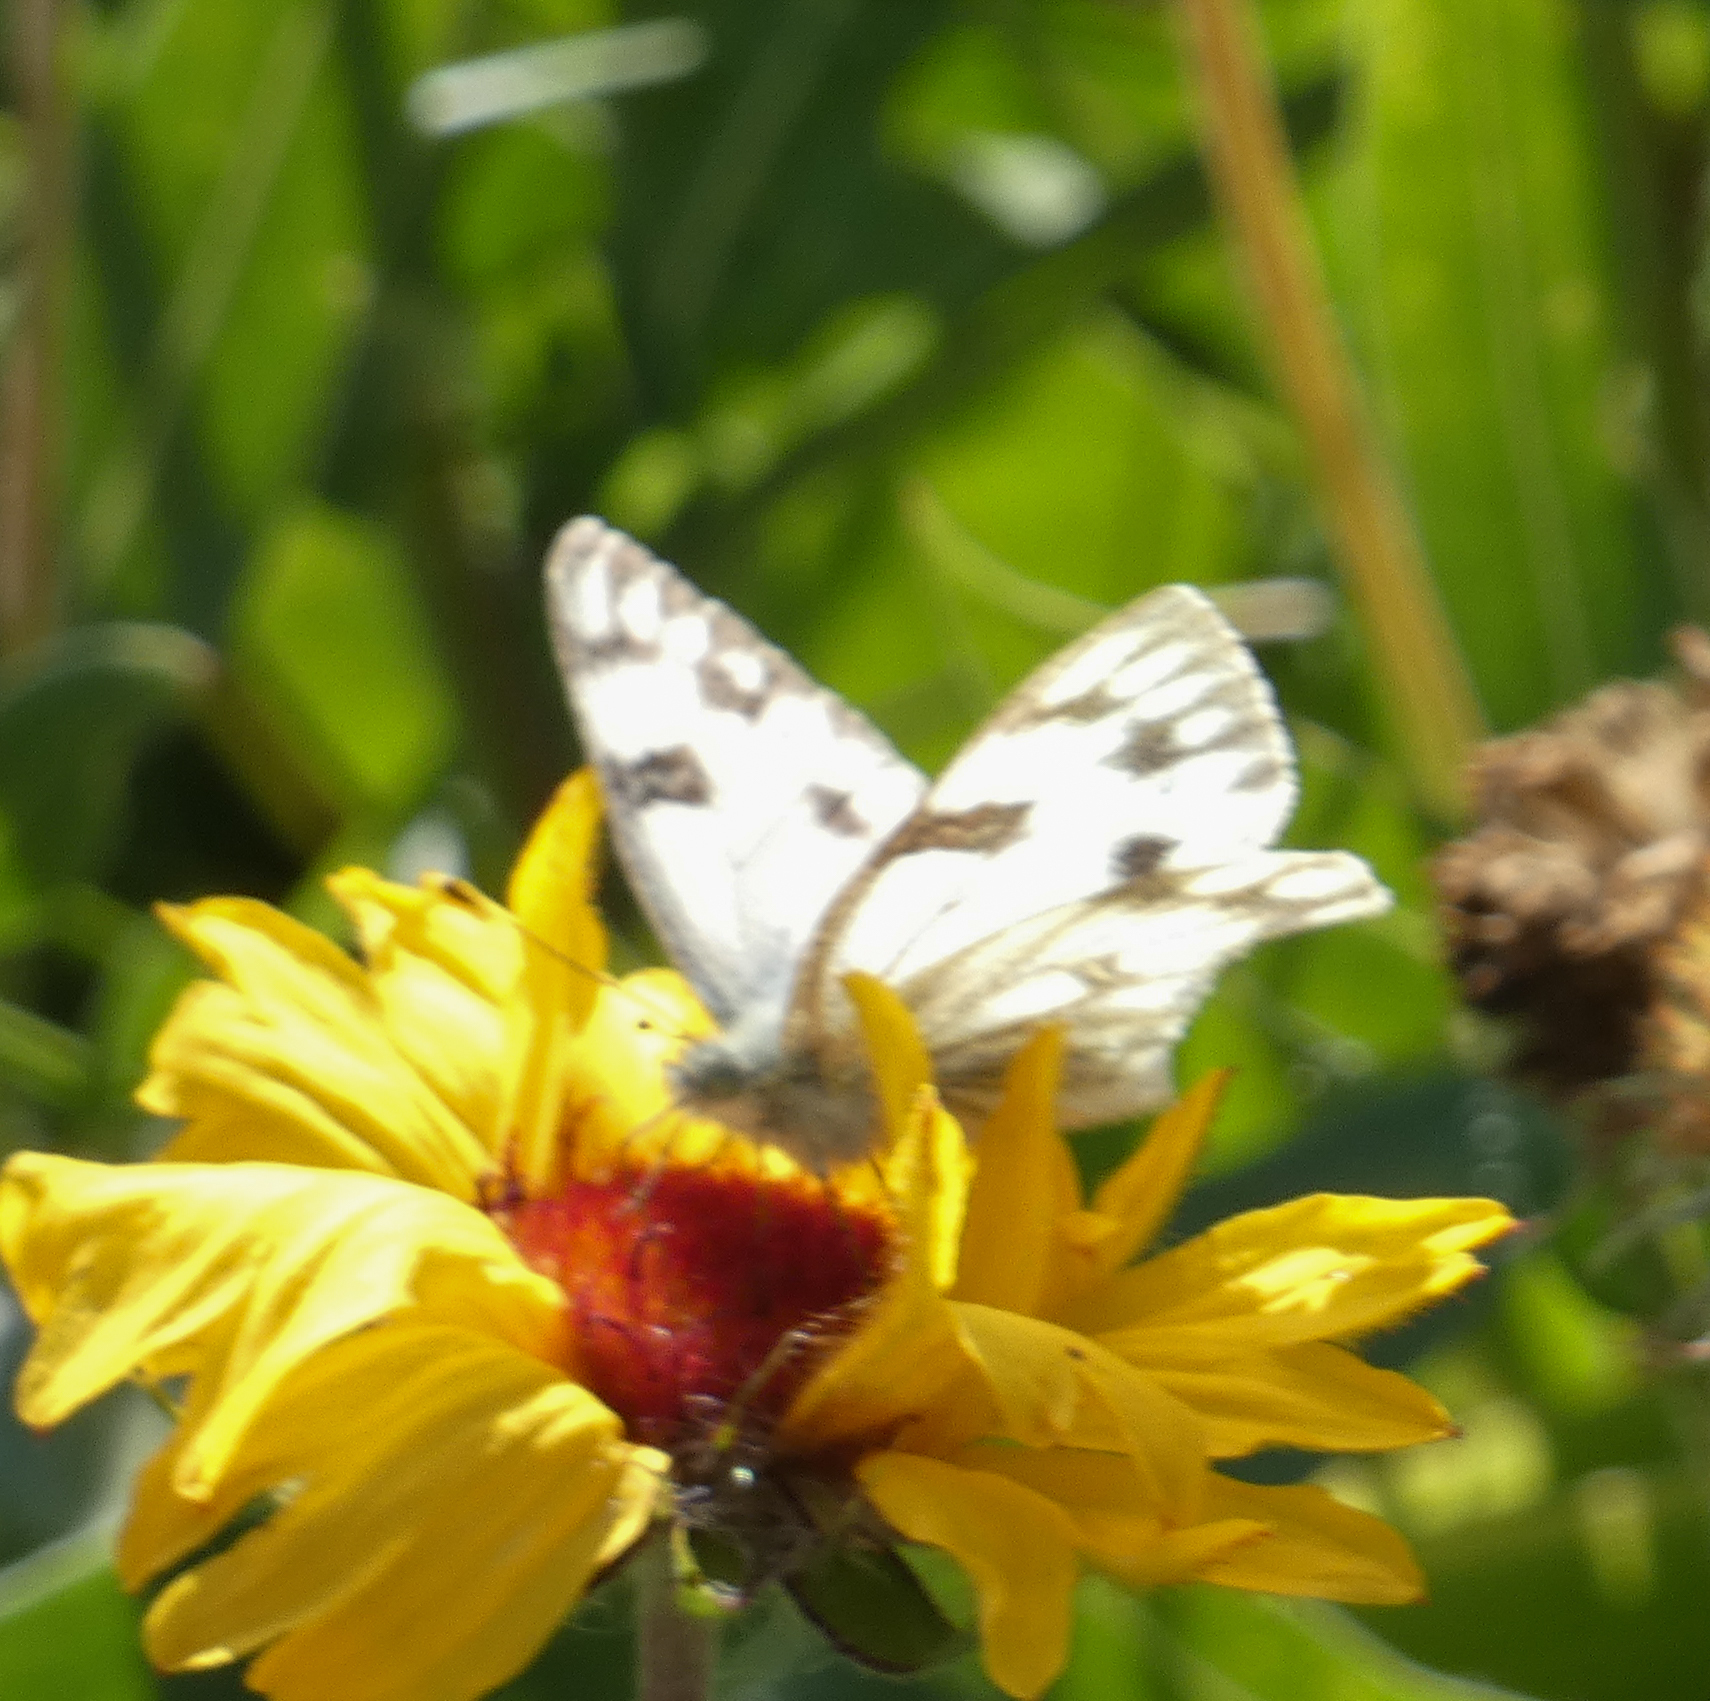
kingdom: Animalia
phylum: Arthropoda
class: Insecta
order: Lepidoptera
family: Pieridae
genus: Pontia
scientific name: Pontia occidentalis
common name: Western white
